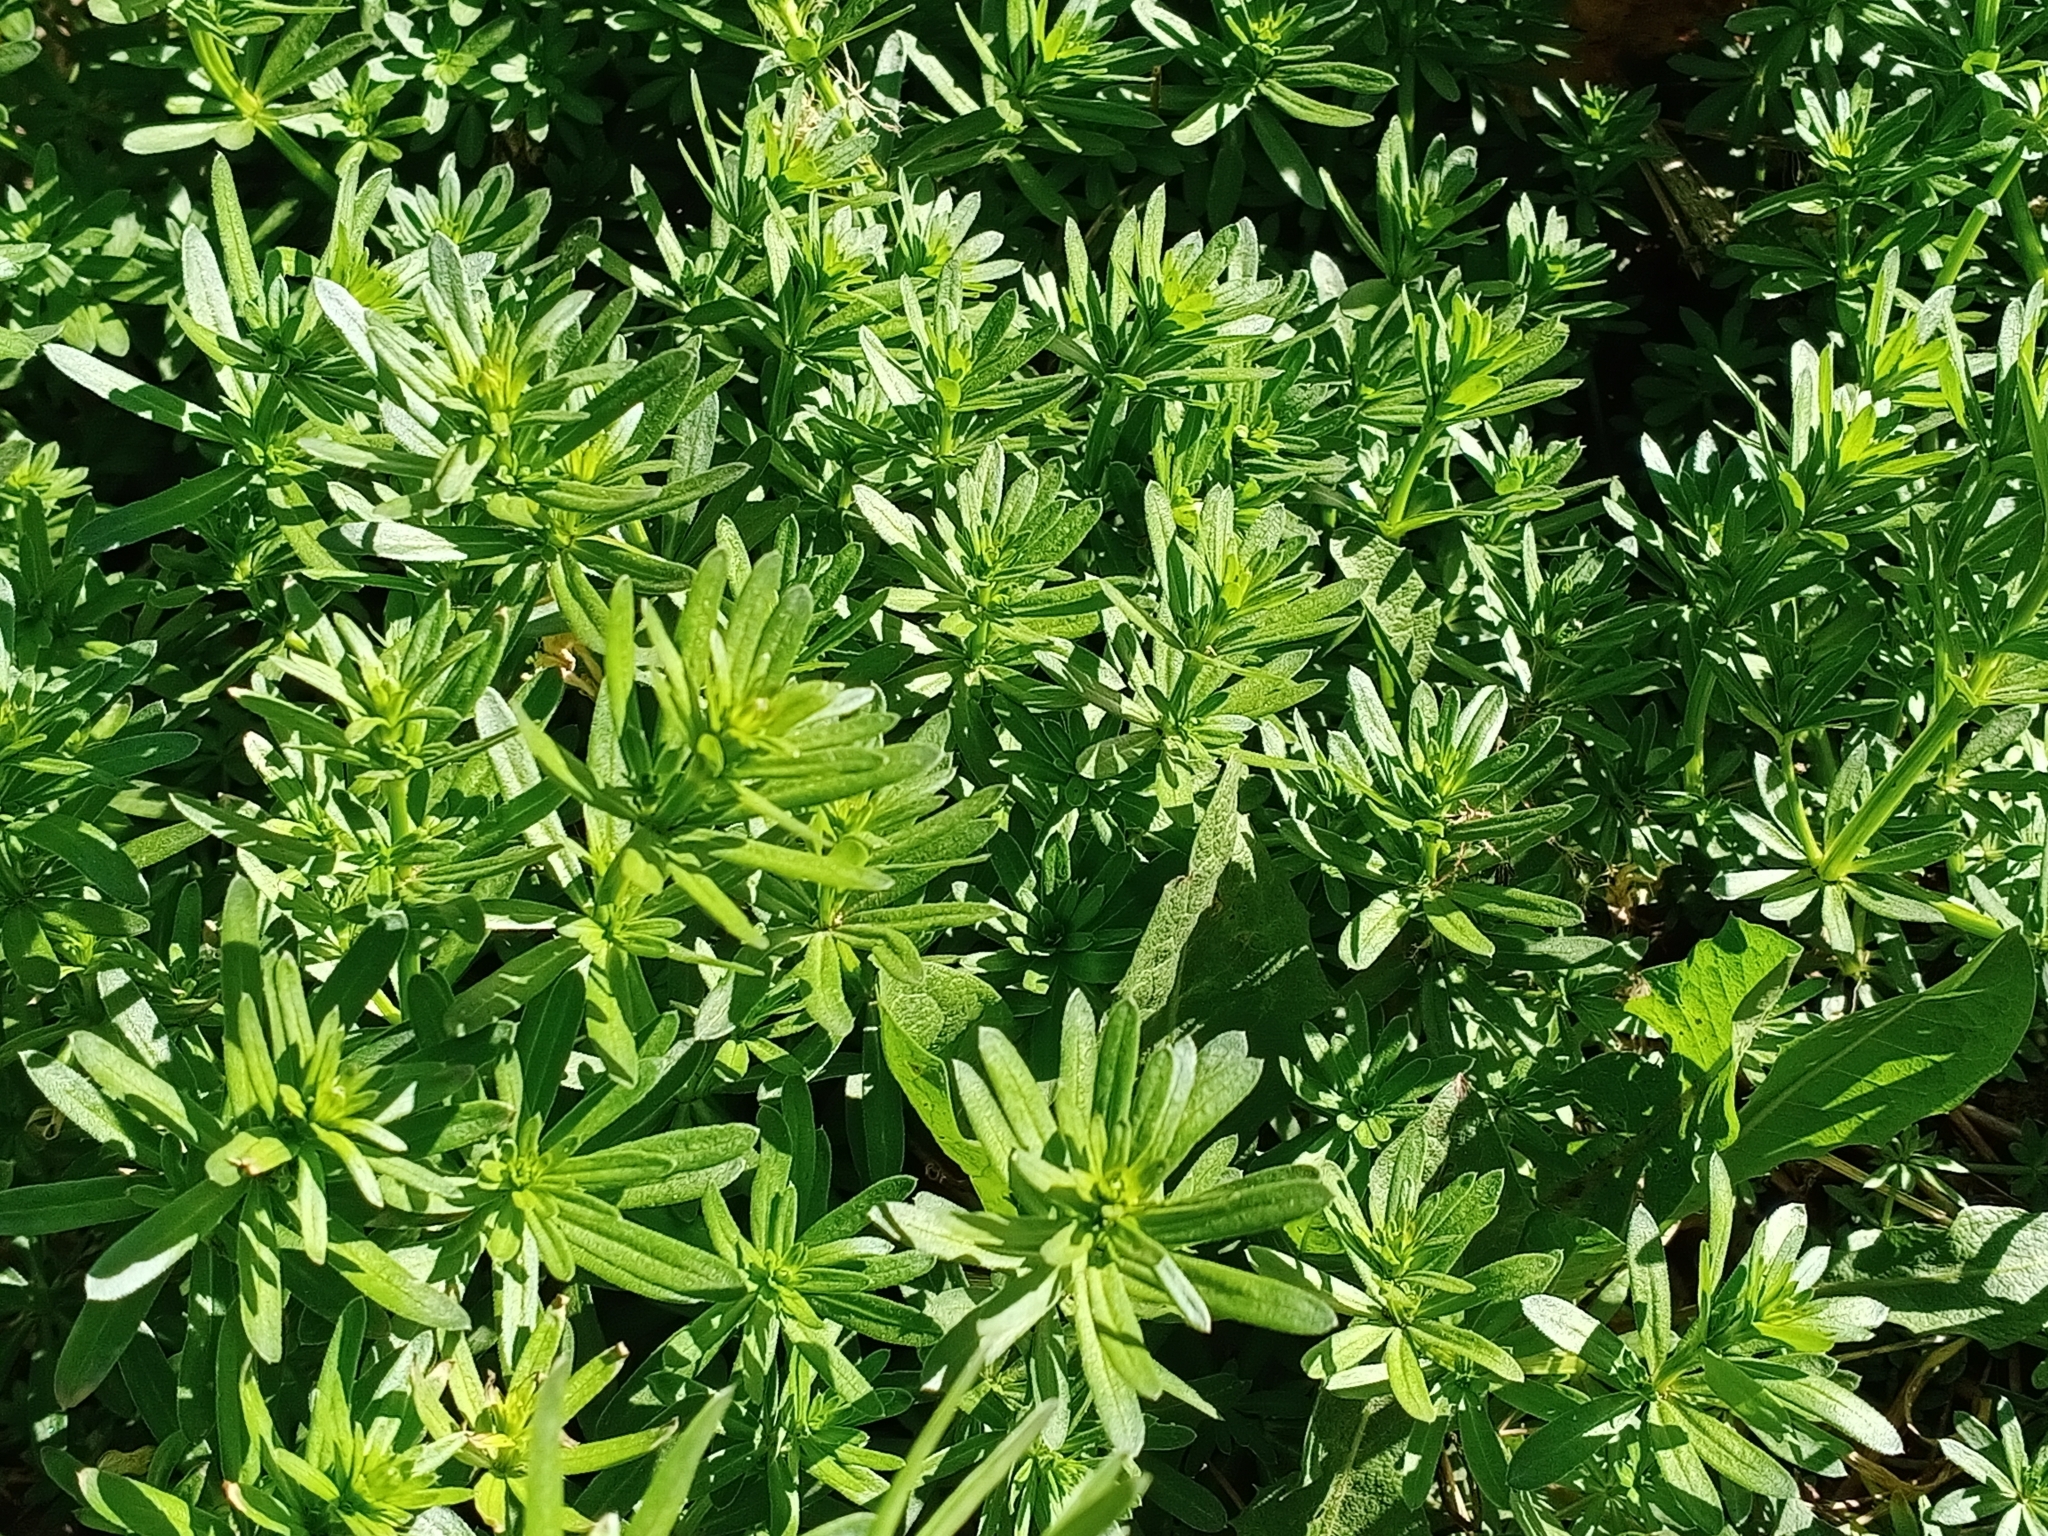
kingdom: Plantae
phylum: Tracheophyta
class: Magnoliopsida
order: Gentianales
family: Rubiaceae
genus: Galium
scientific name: Galium mollugo
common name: Hedge bedstraw
